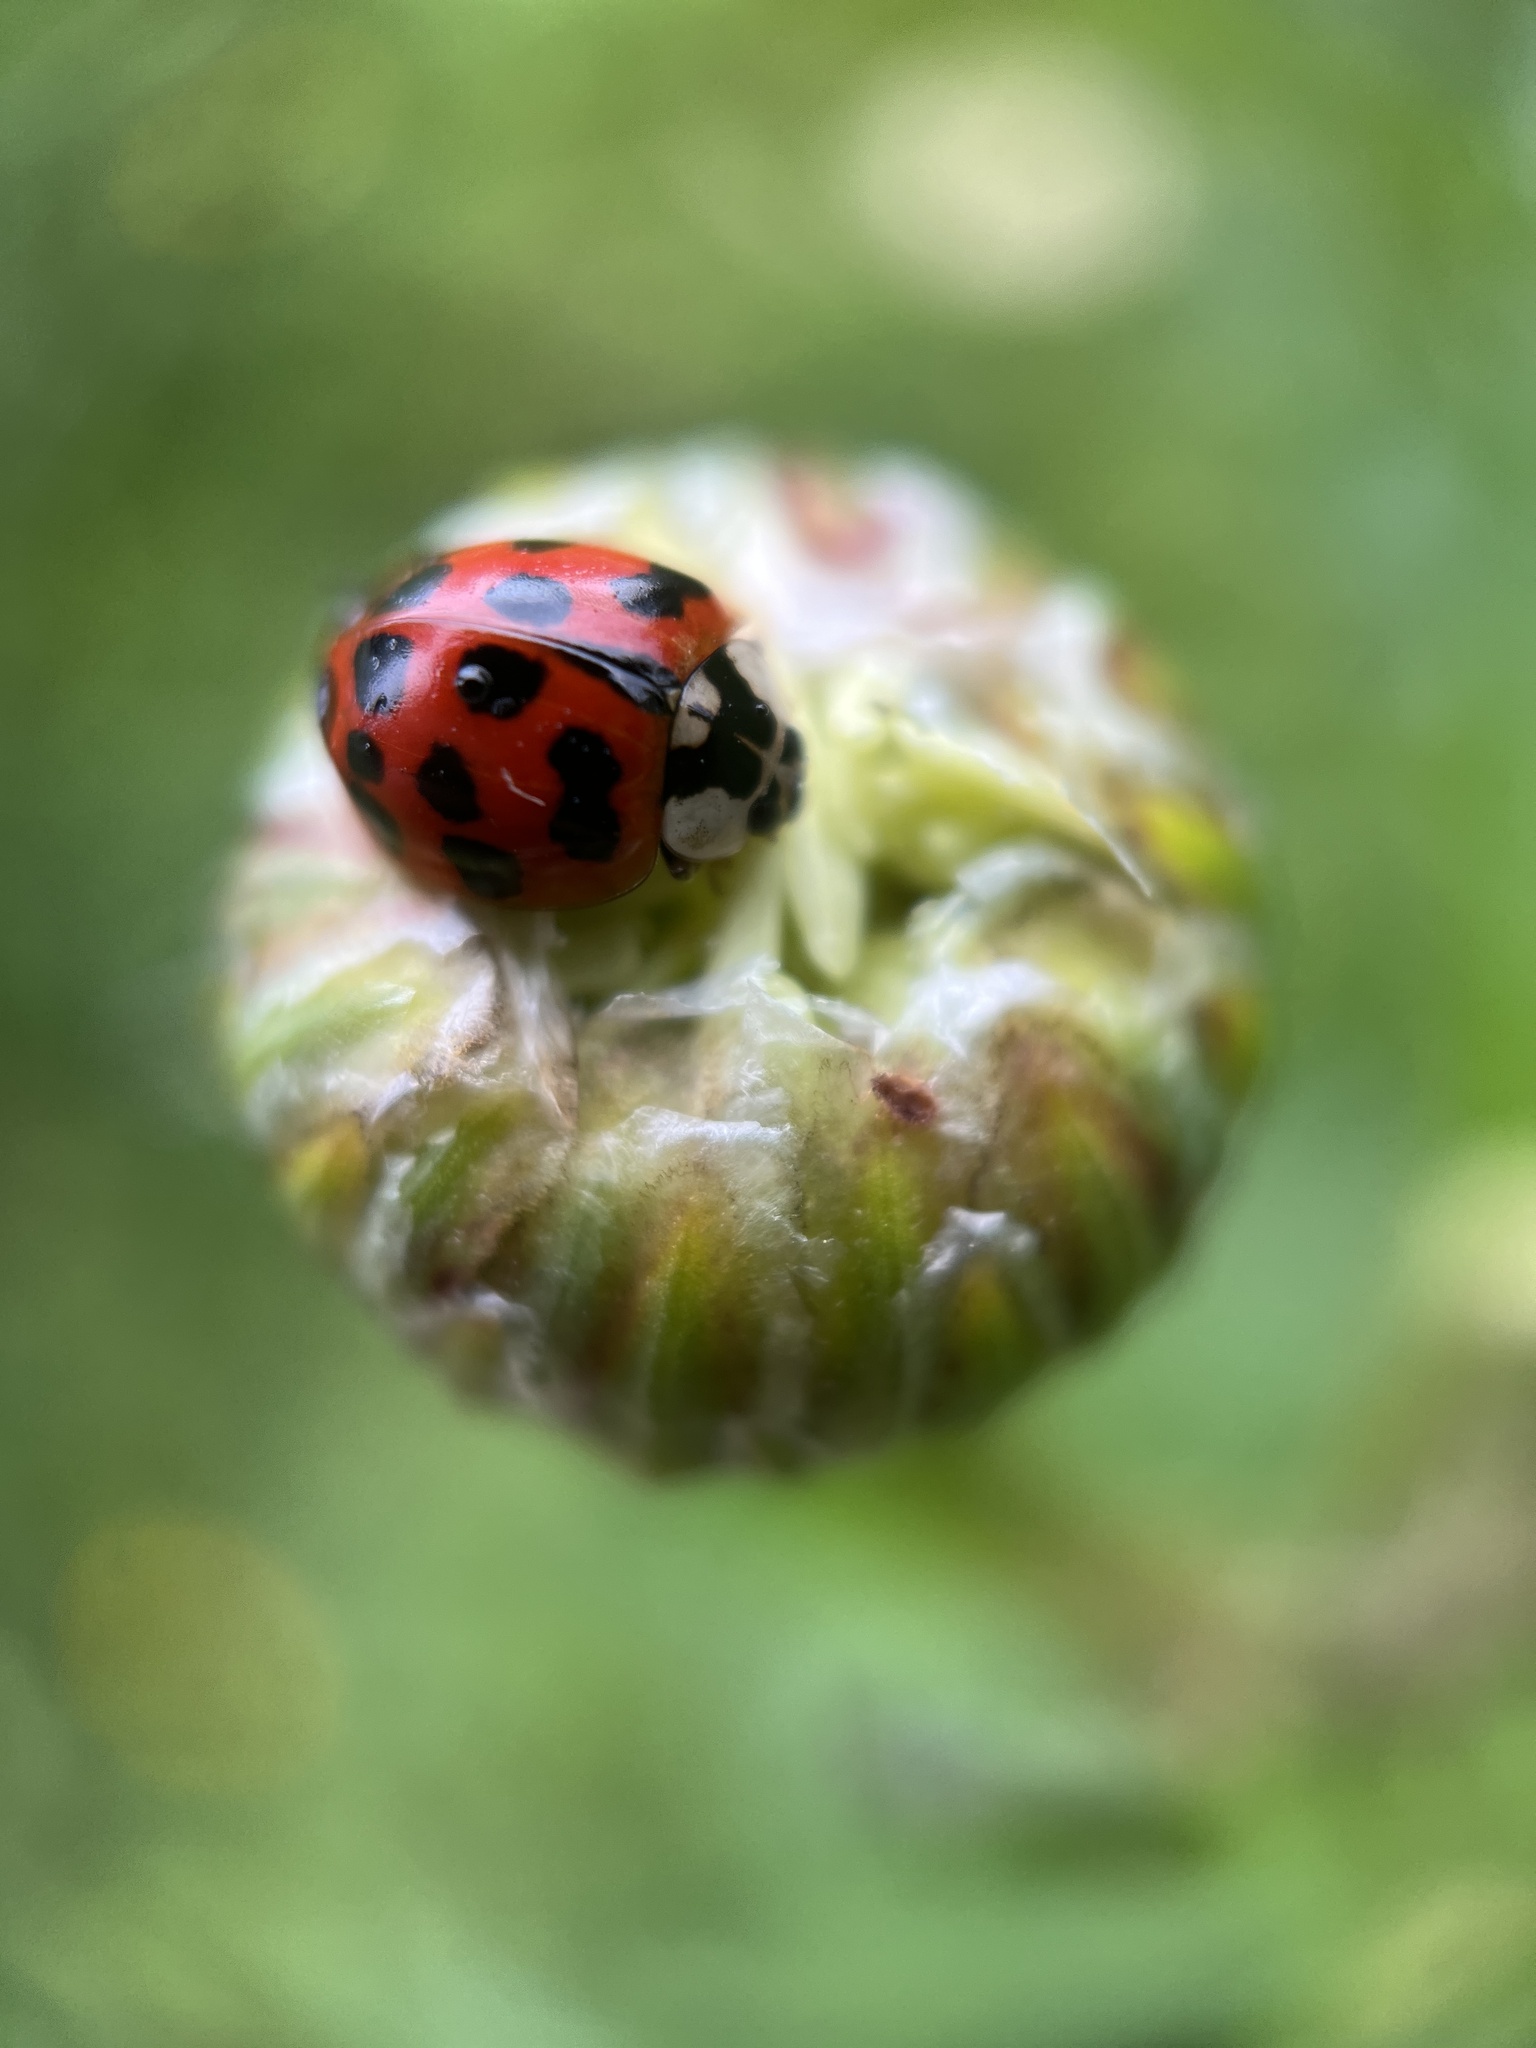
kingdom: Animalia
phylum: Arthropoda
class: Insecta
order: Coleoptera
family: Coccinellidae
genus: Harmonia
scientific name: Harmonia axyridis
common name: Harlequin ladybird
